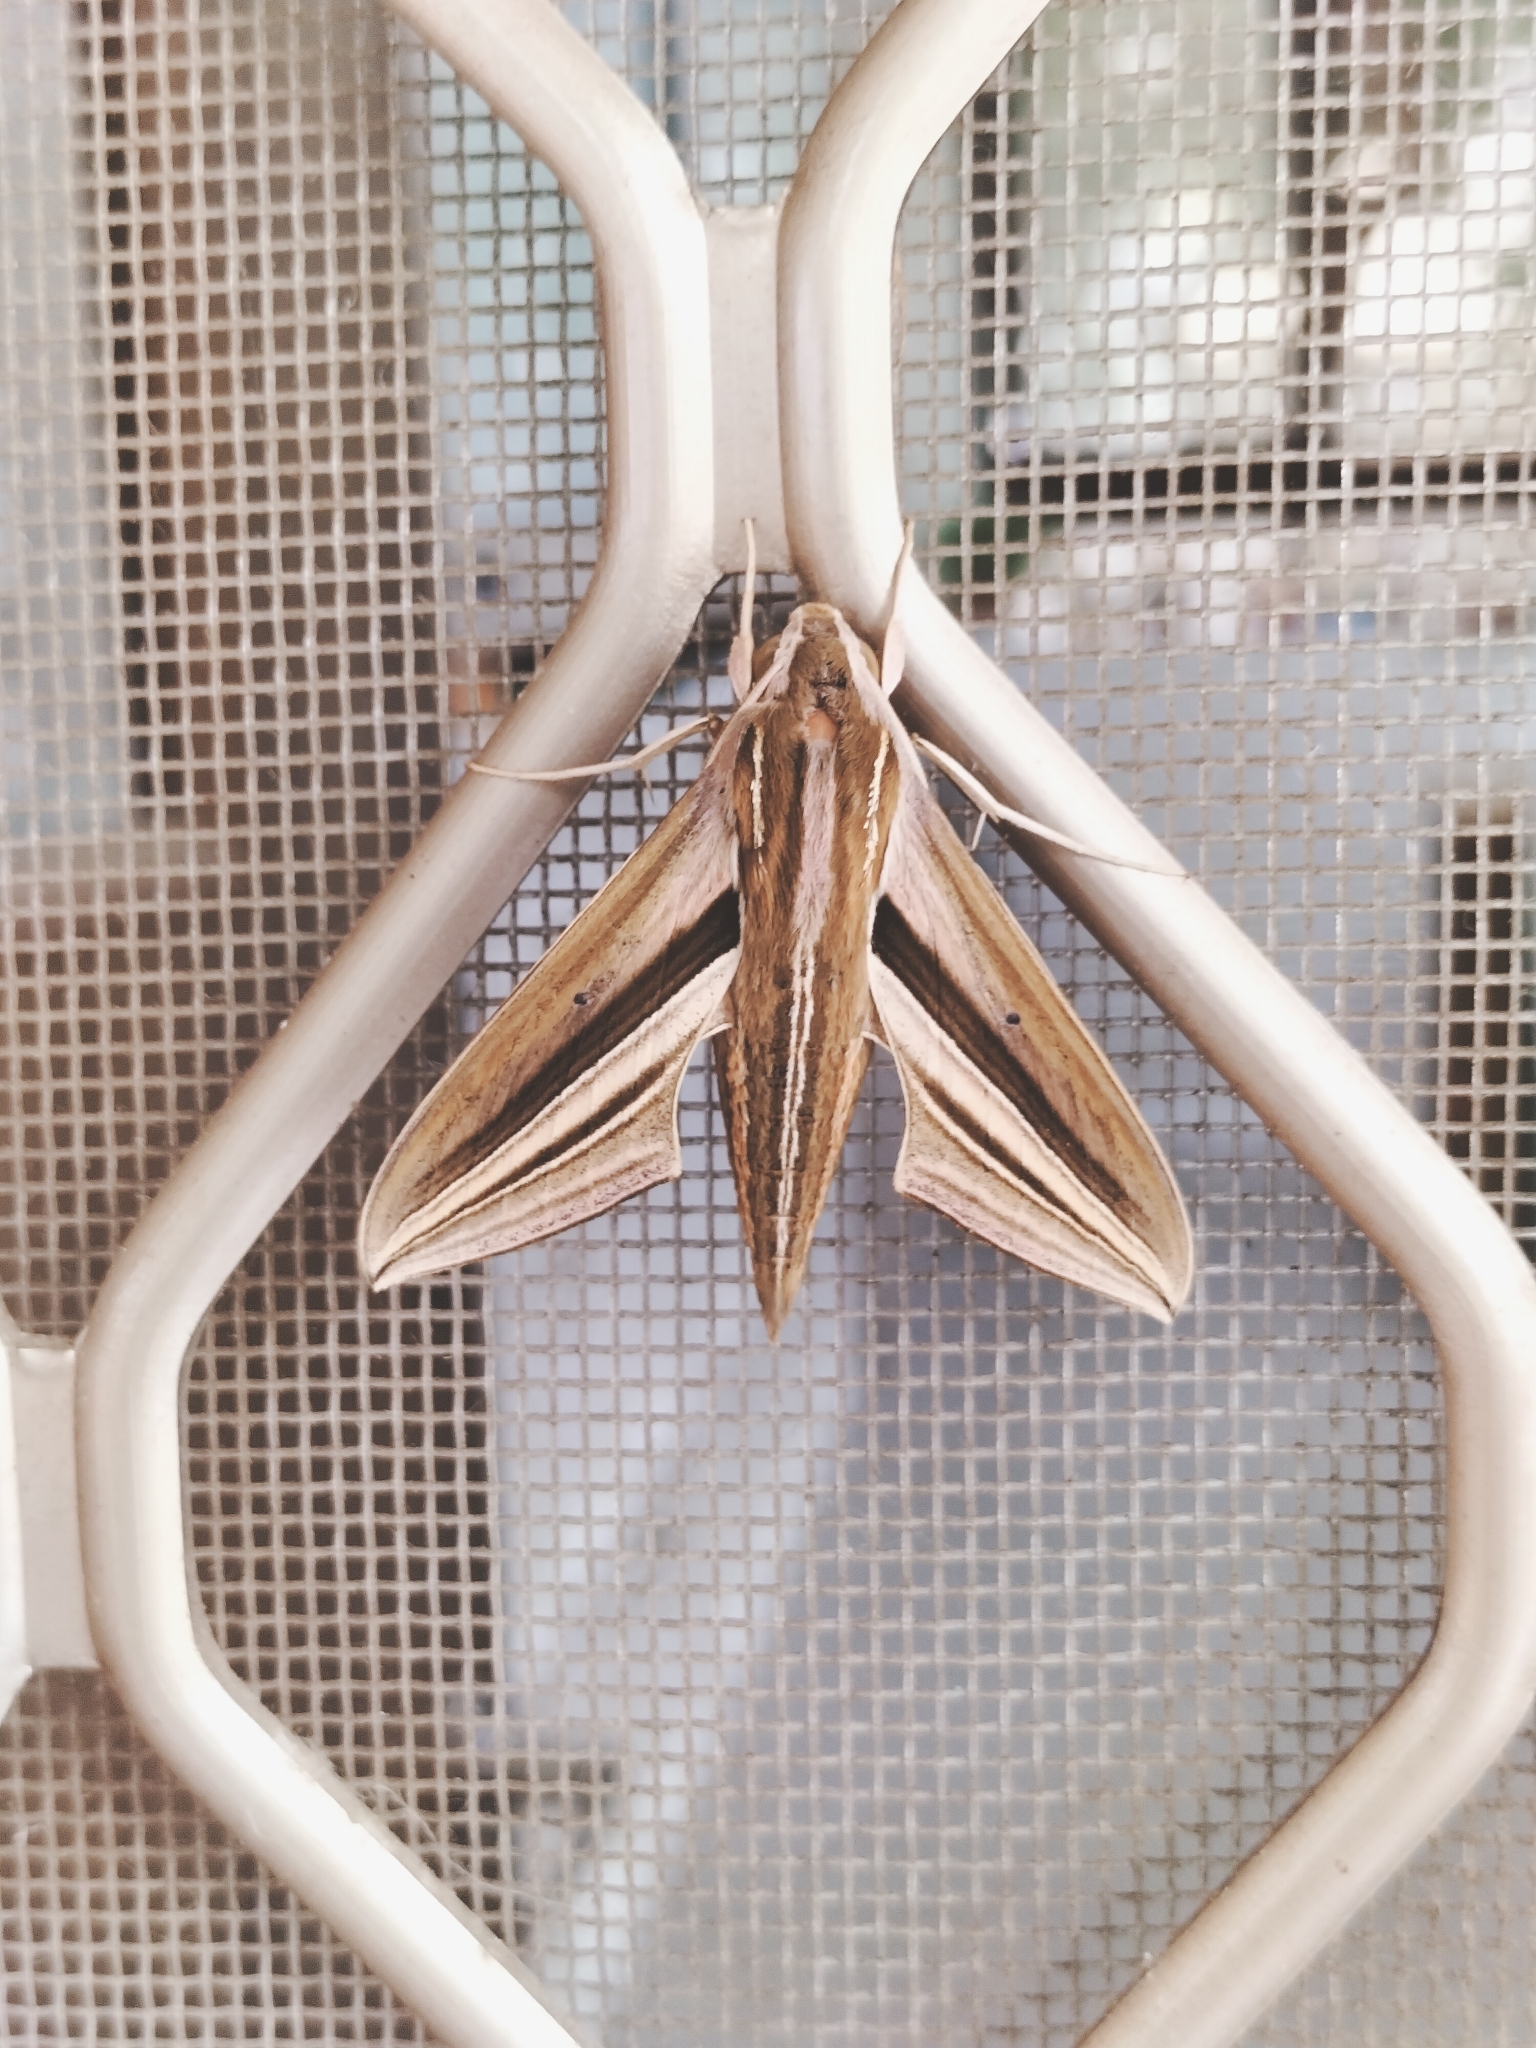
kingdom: Animalia
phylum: Arthropoda
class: Insecta
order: Lepidoptera
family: Sphingidae
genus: Theretra
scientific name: Theretra oldenlandiae
